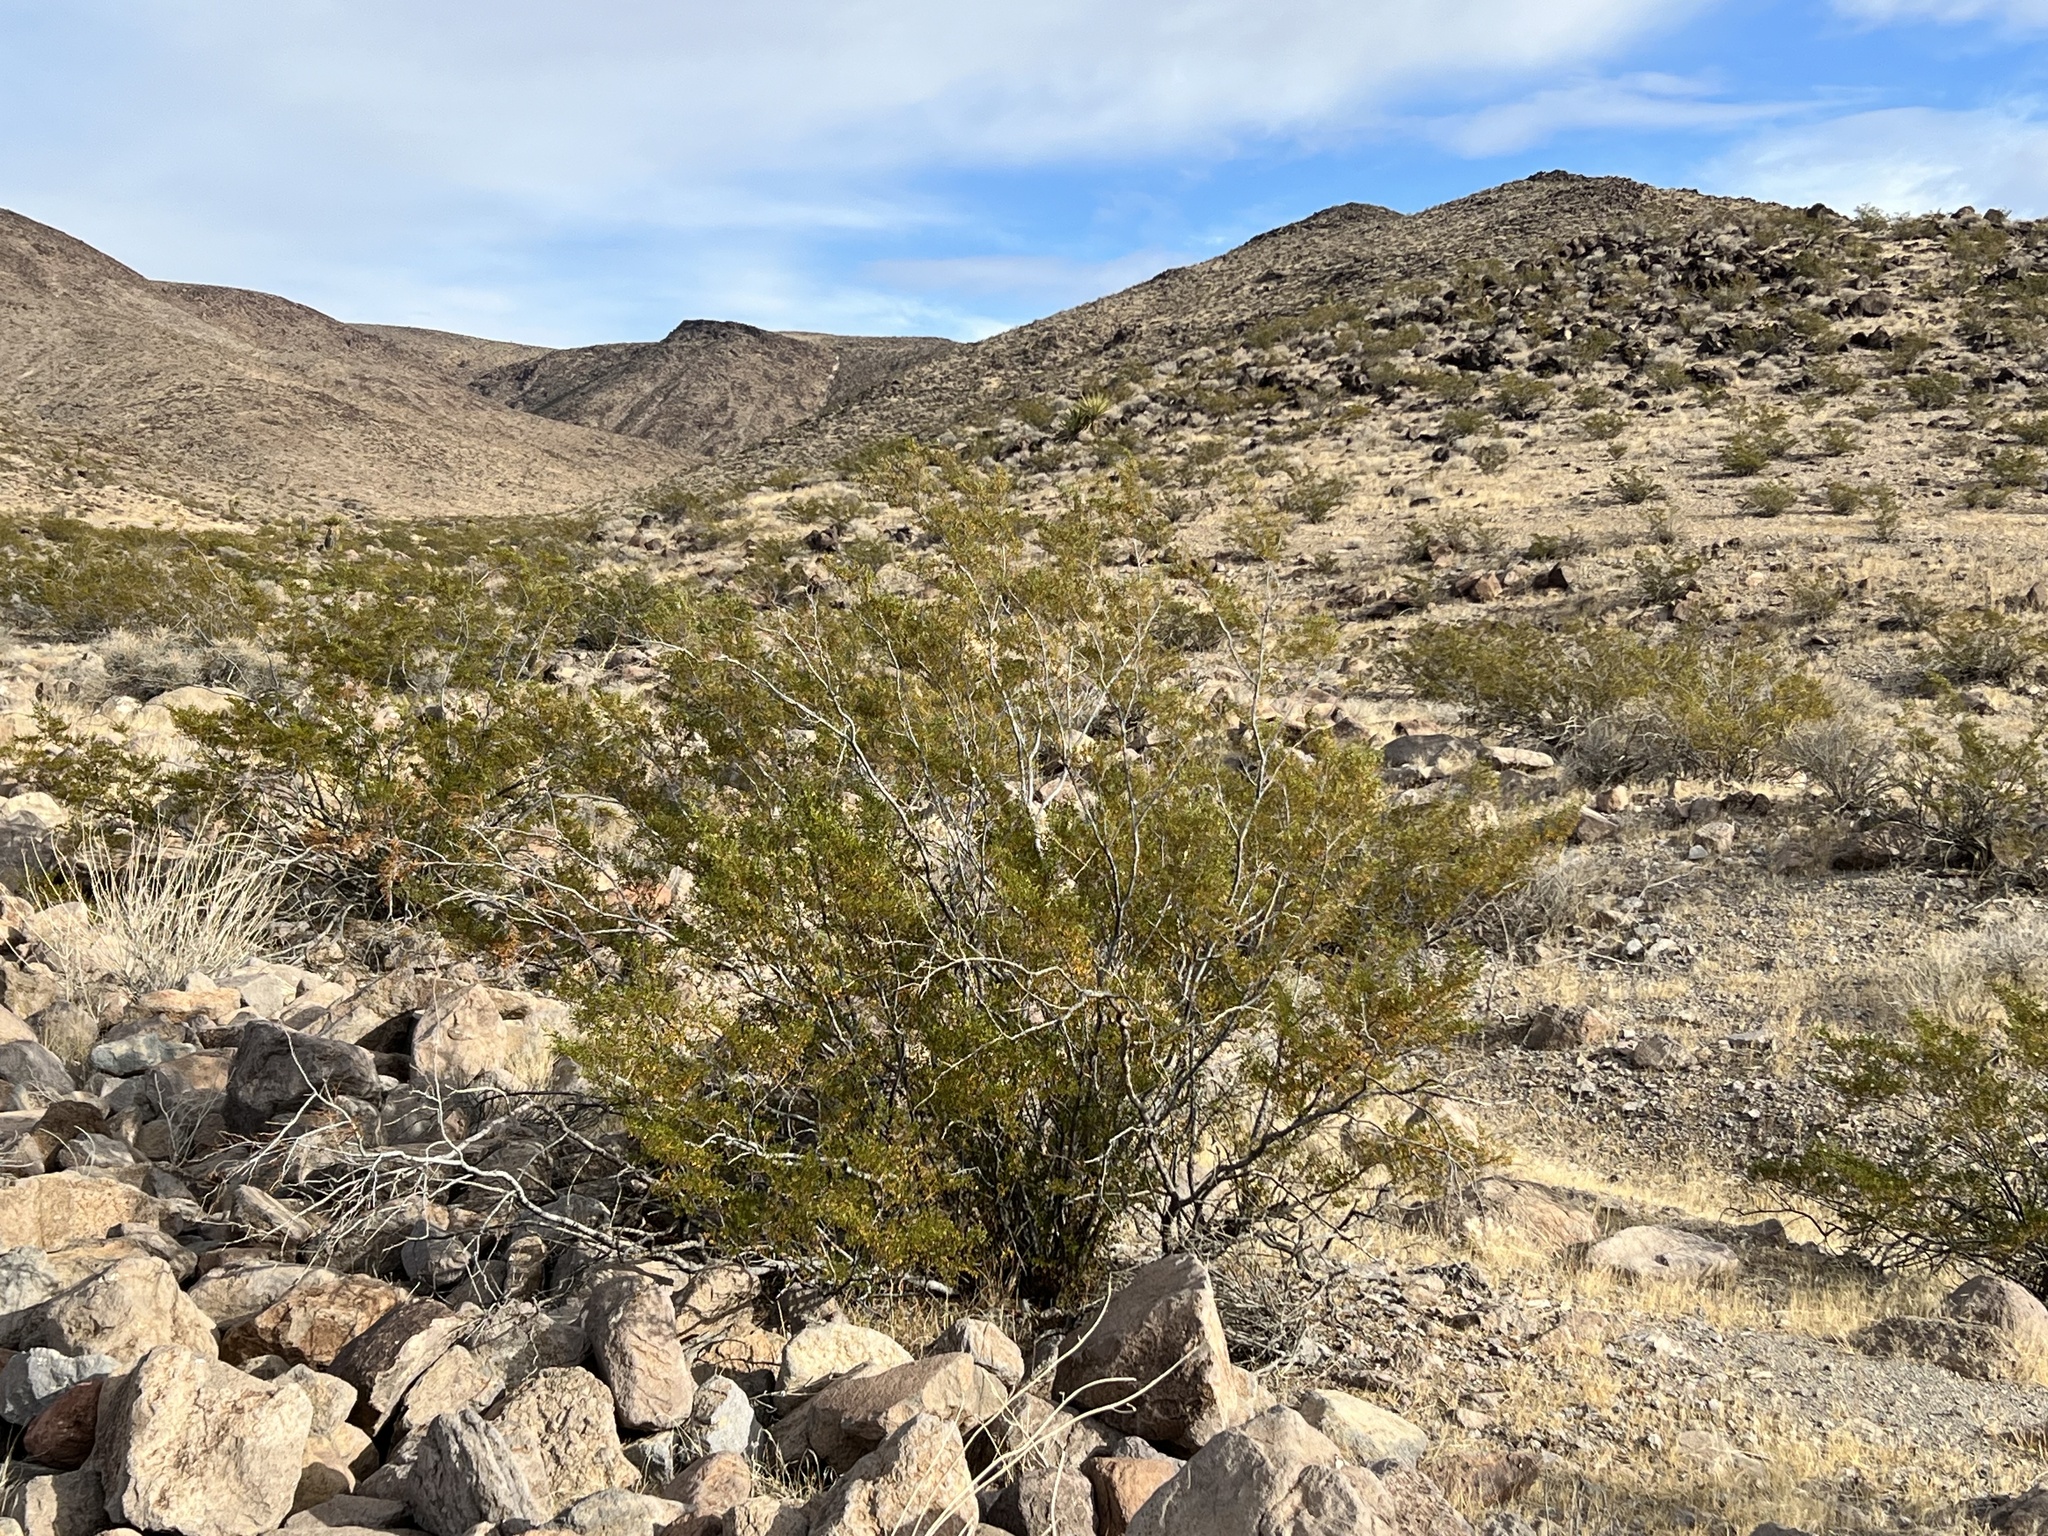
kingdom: Plantae
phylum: Tracheophyta
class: Magnoliopsida
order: Zygophyllales
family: Zygophyllaceae
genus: Larrea
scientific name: Larrea tridentata
